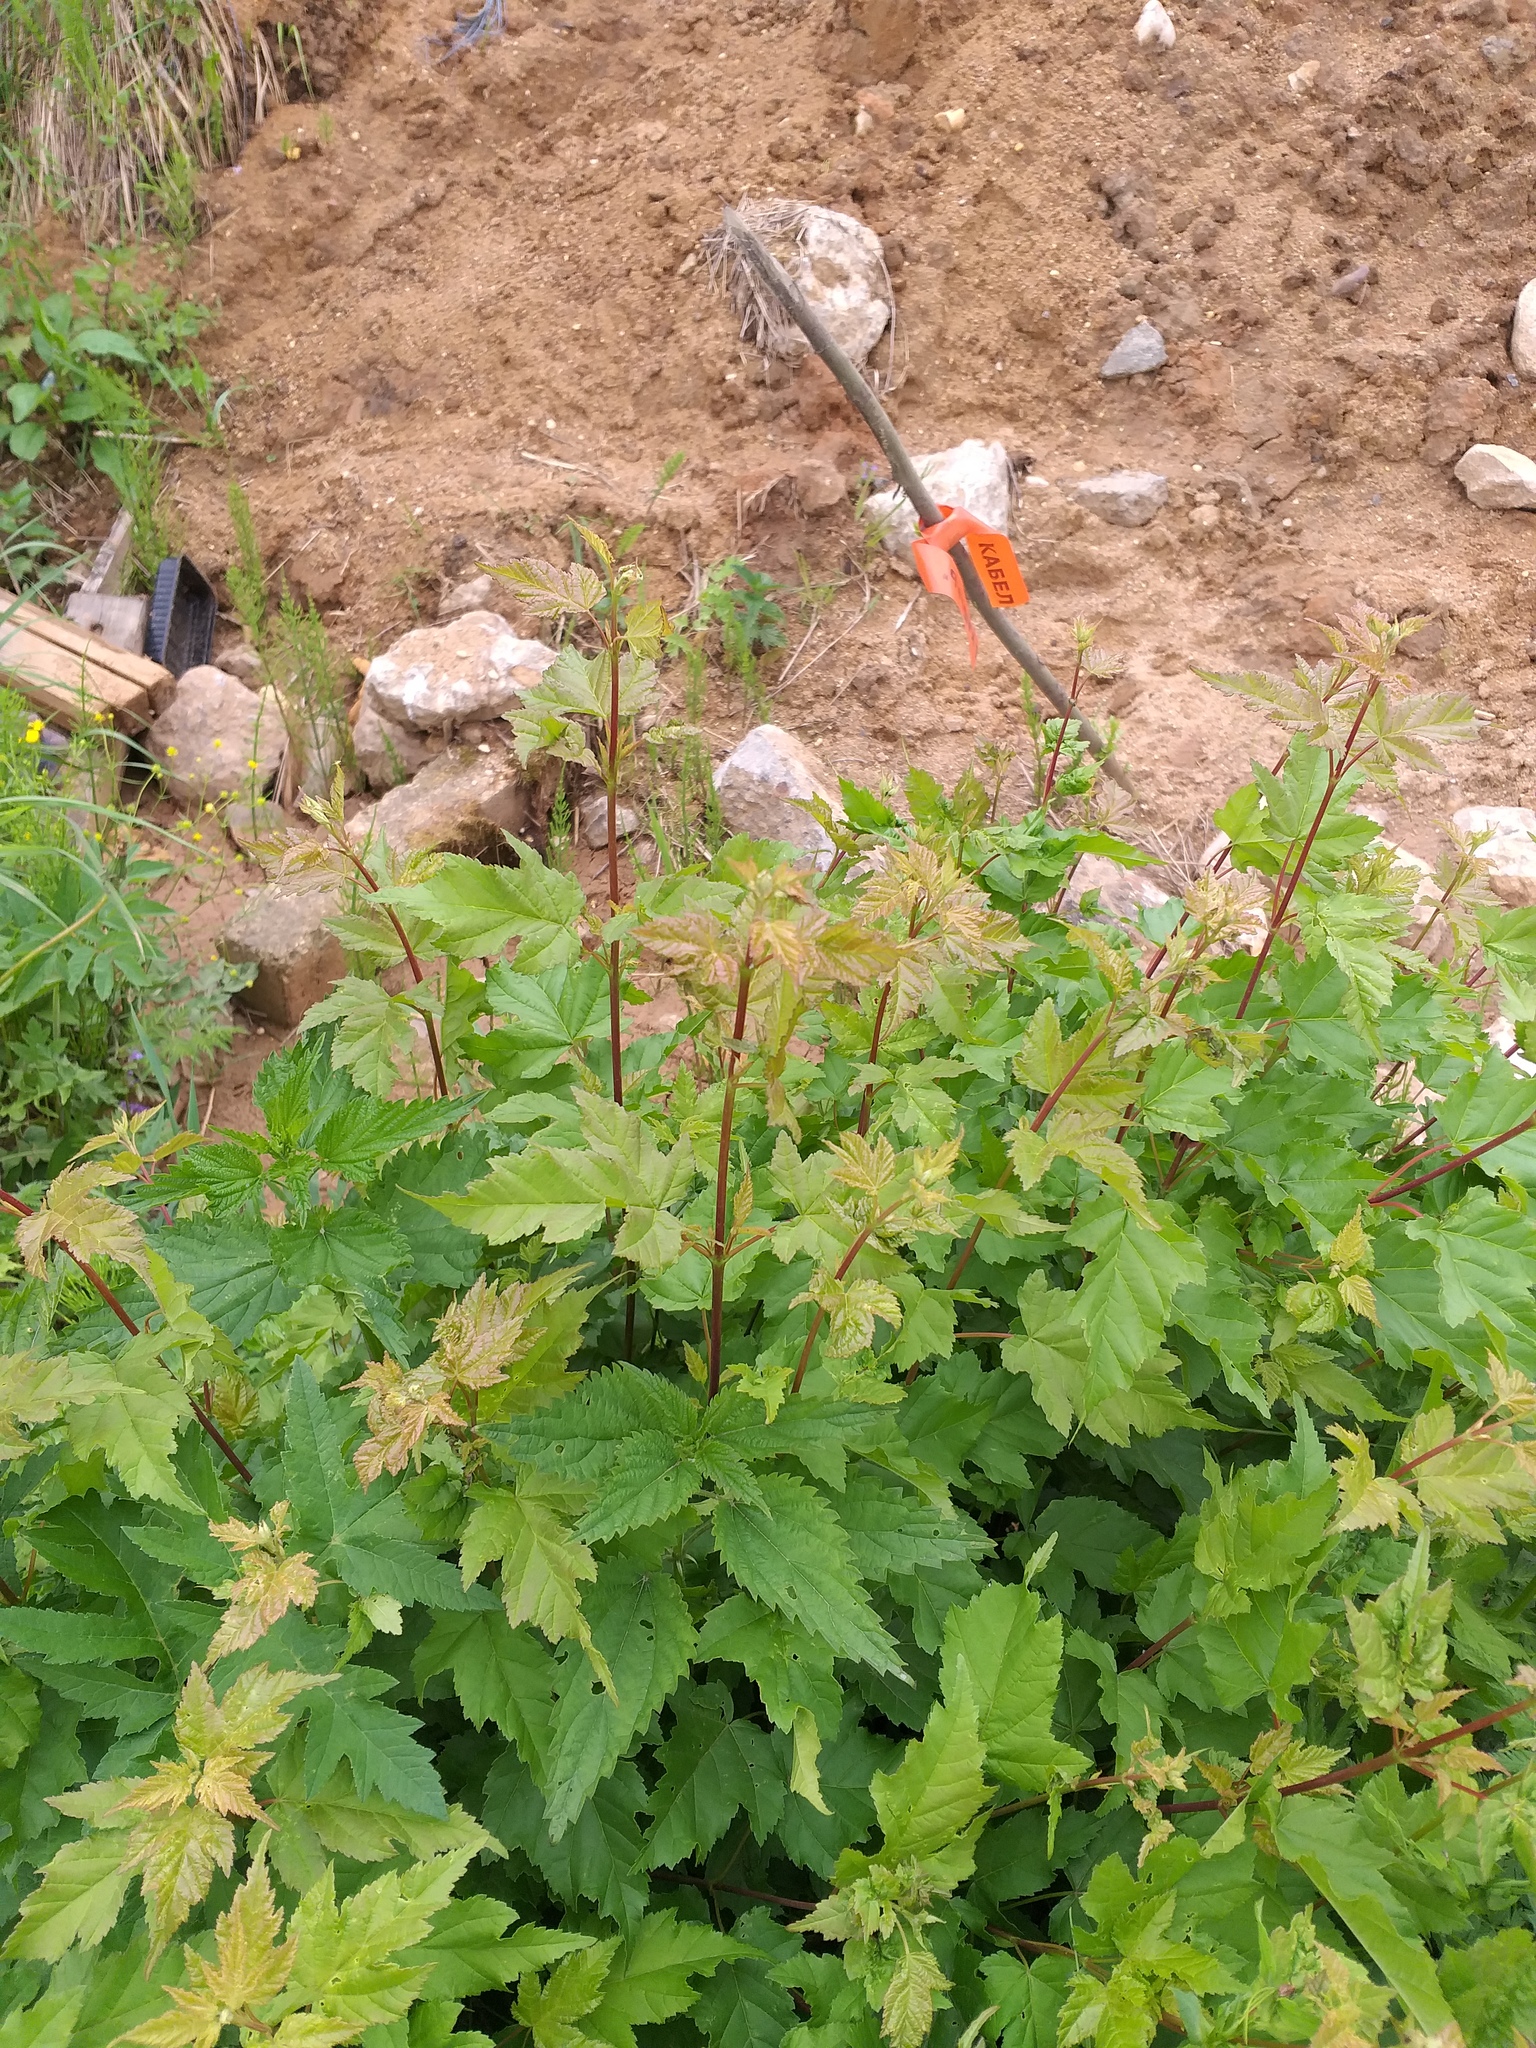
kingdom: Plantae
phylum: Tracheophyta
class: Magnoliopsida
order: Sapindales
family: Sapindaceae
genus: Acer
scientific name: Acer tataricum
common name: Tartar maple
